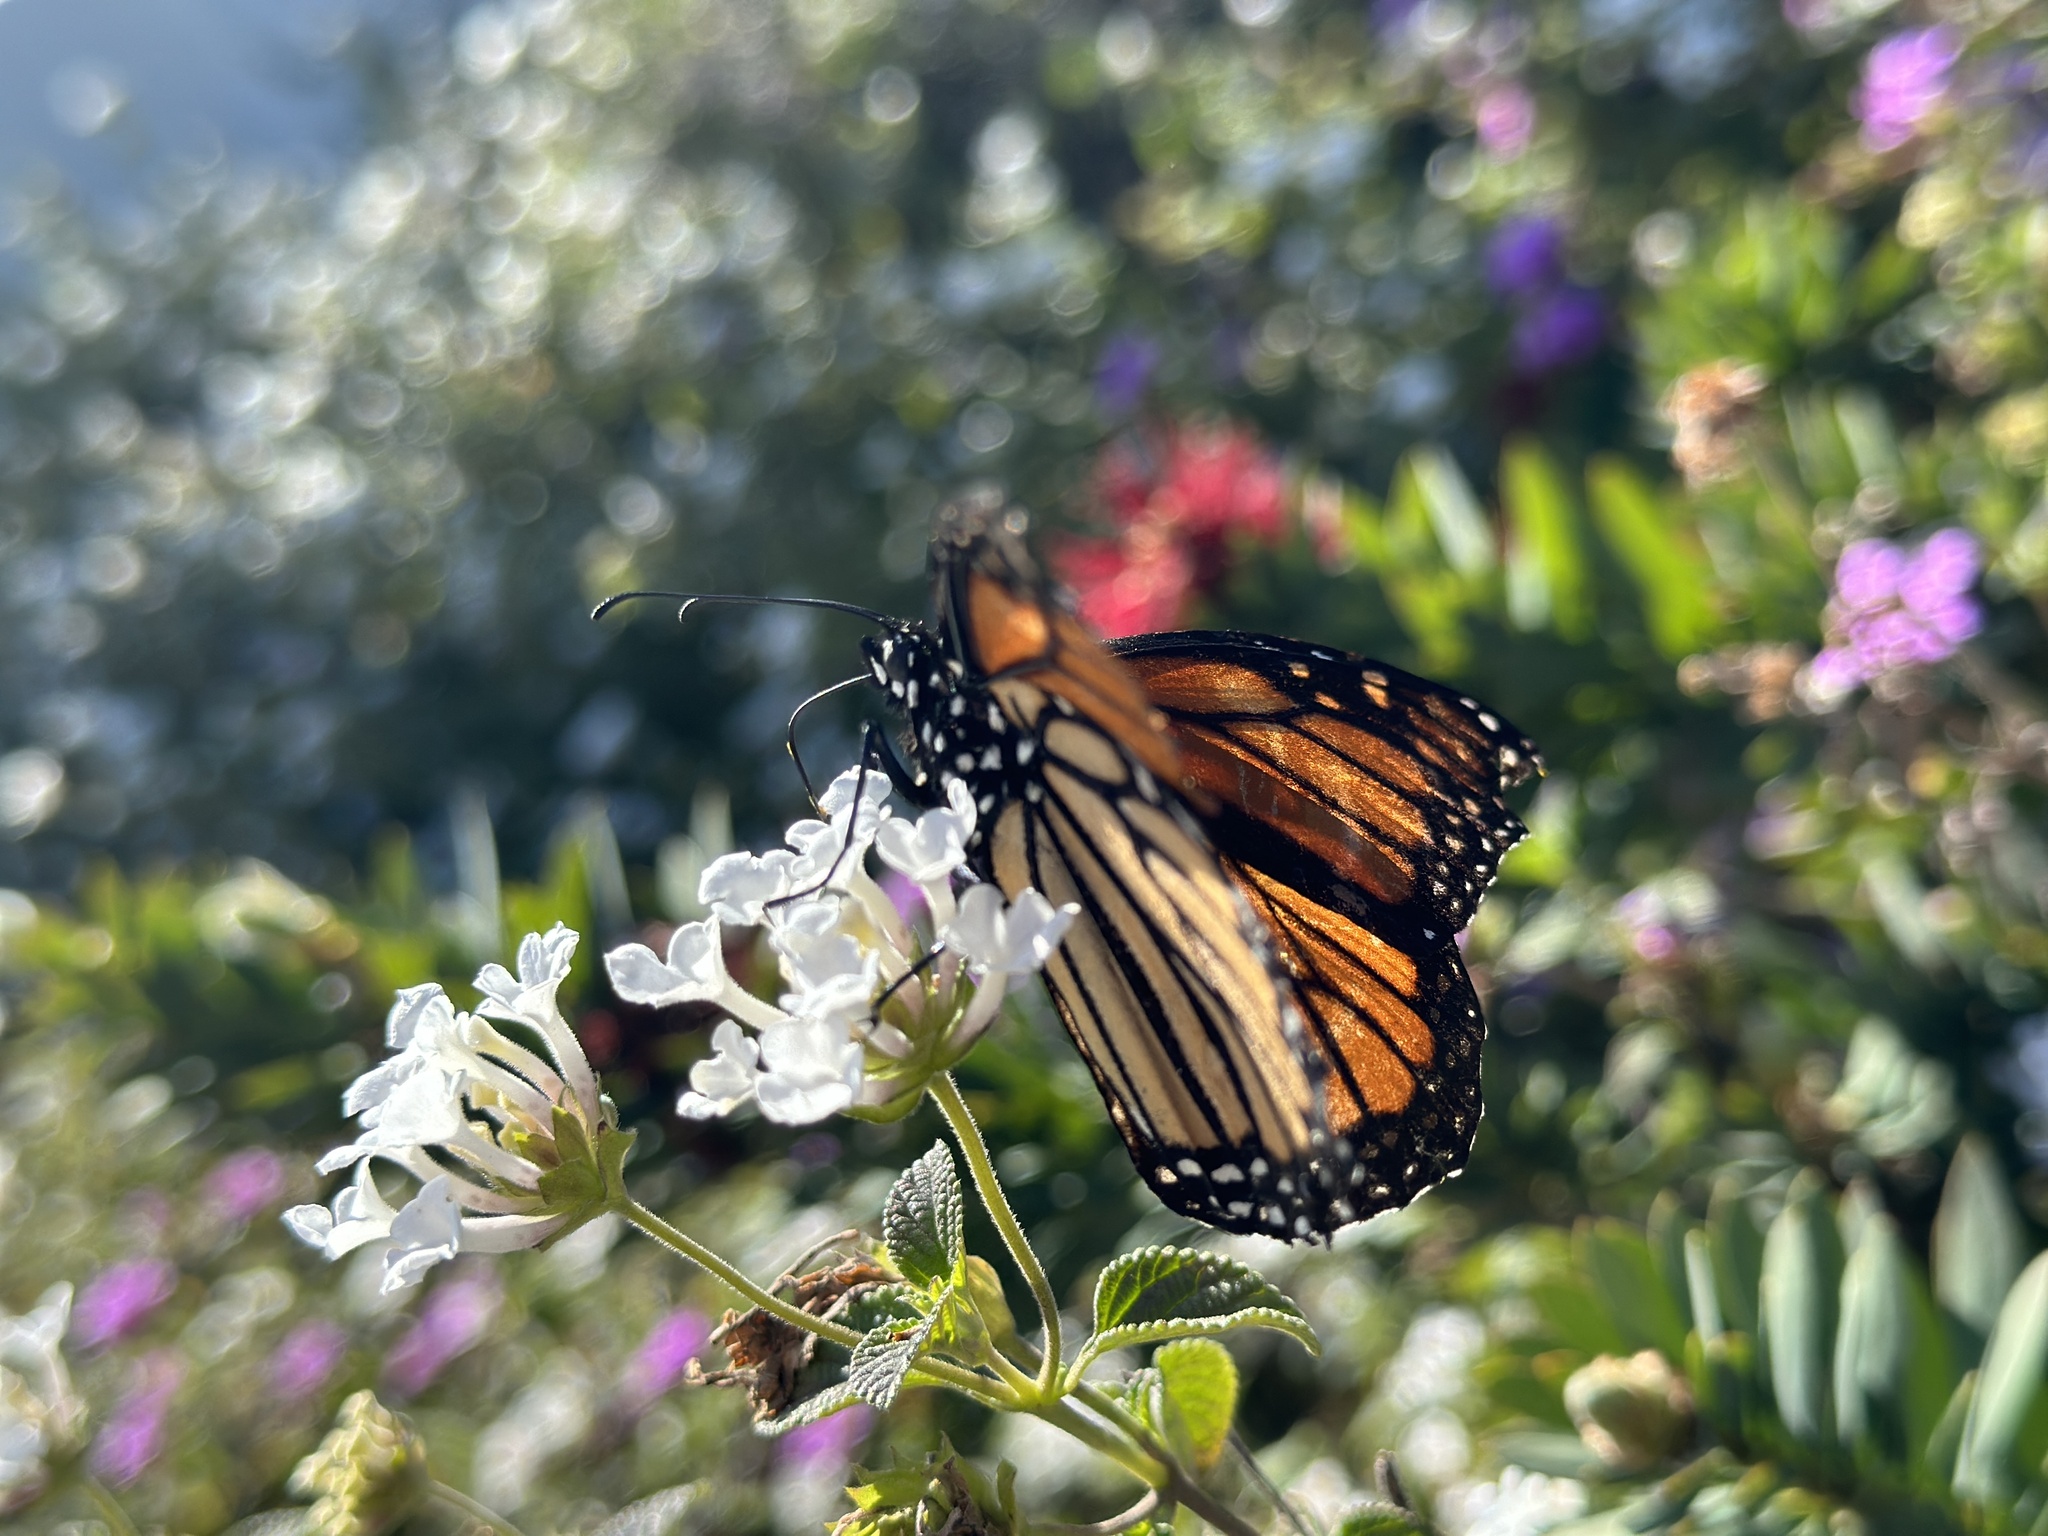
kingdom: Animalia
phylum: Arthropoda
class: Insecta
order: Lepidoptera
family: Nymphalidae
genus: Danaus
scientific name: Danaus plexippus
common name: Monarch
